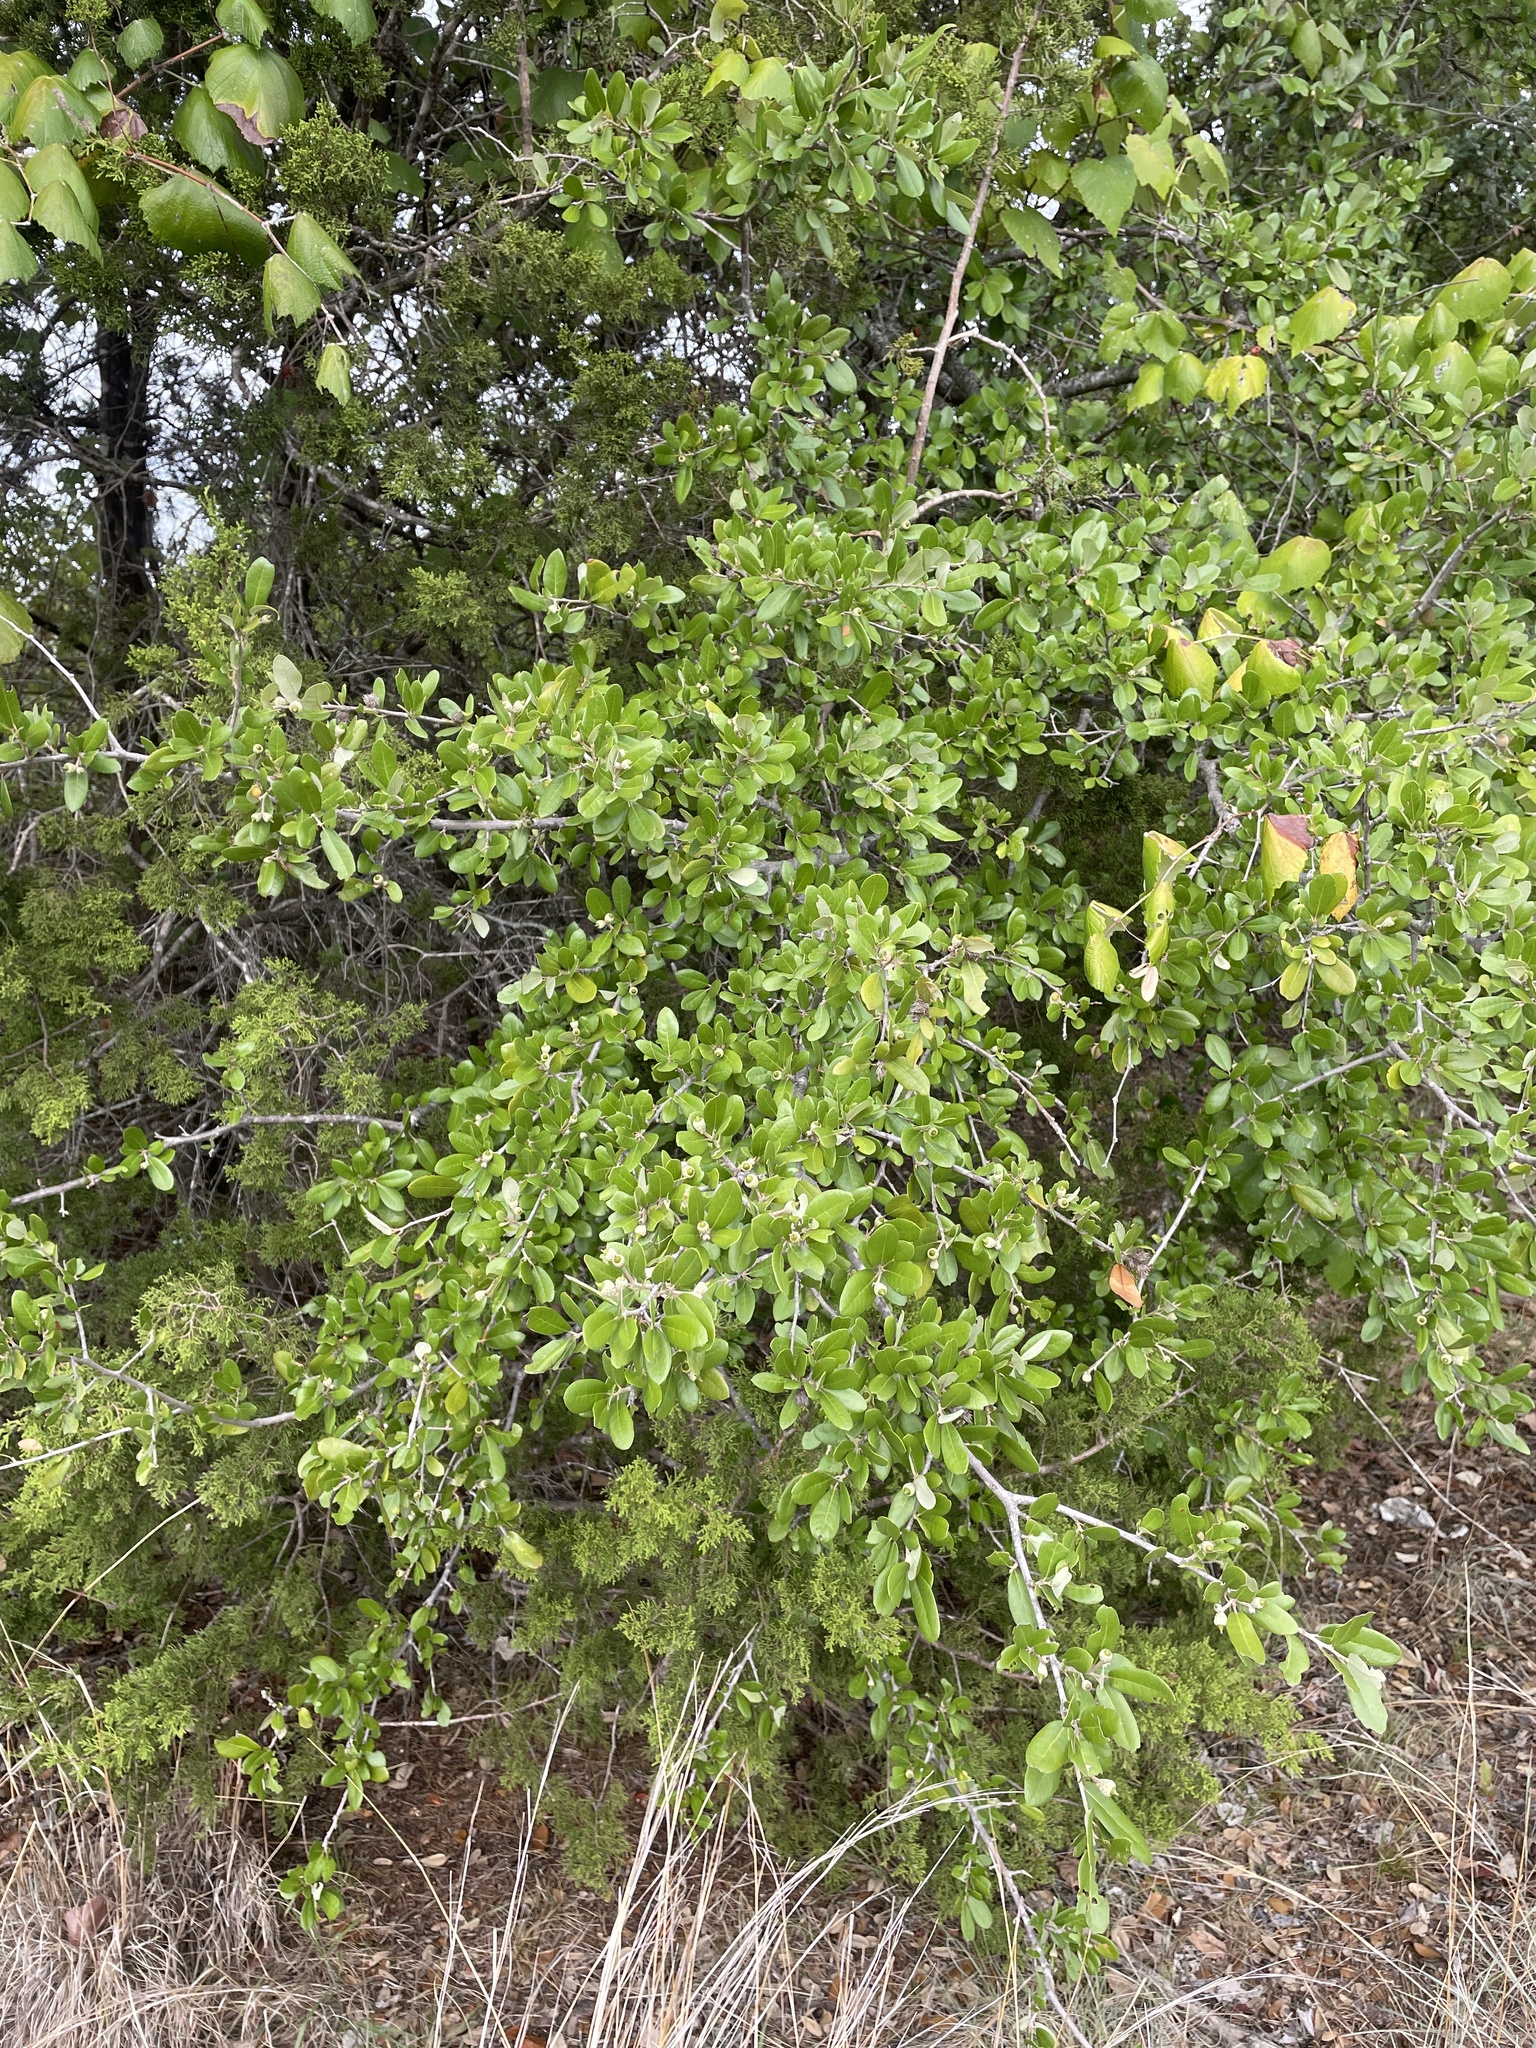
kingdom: Plantae
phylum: Tracheophyta
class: Magnoliopsida
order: Fagales
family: Fagaceae
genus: Quercus
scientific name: Quercus fusiformis
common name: Texas live oak
